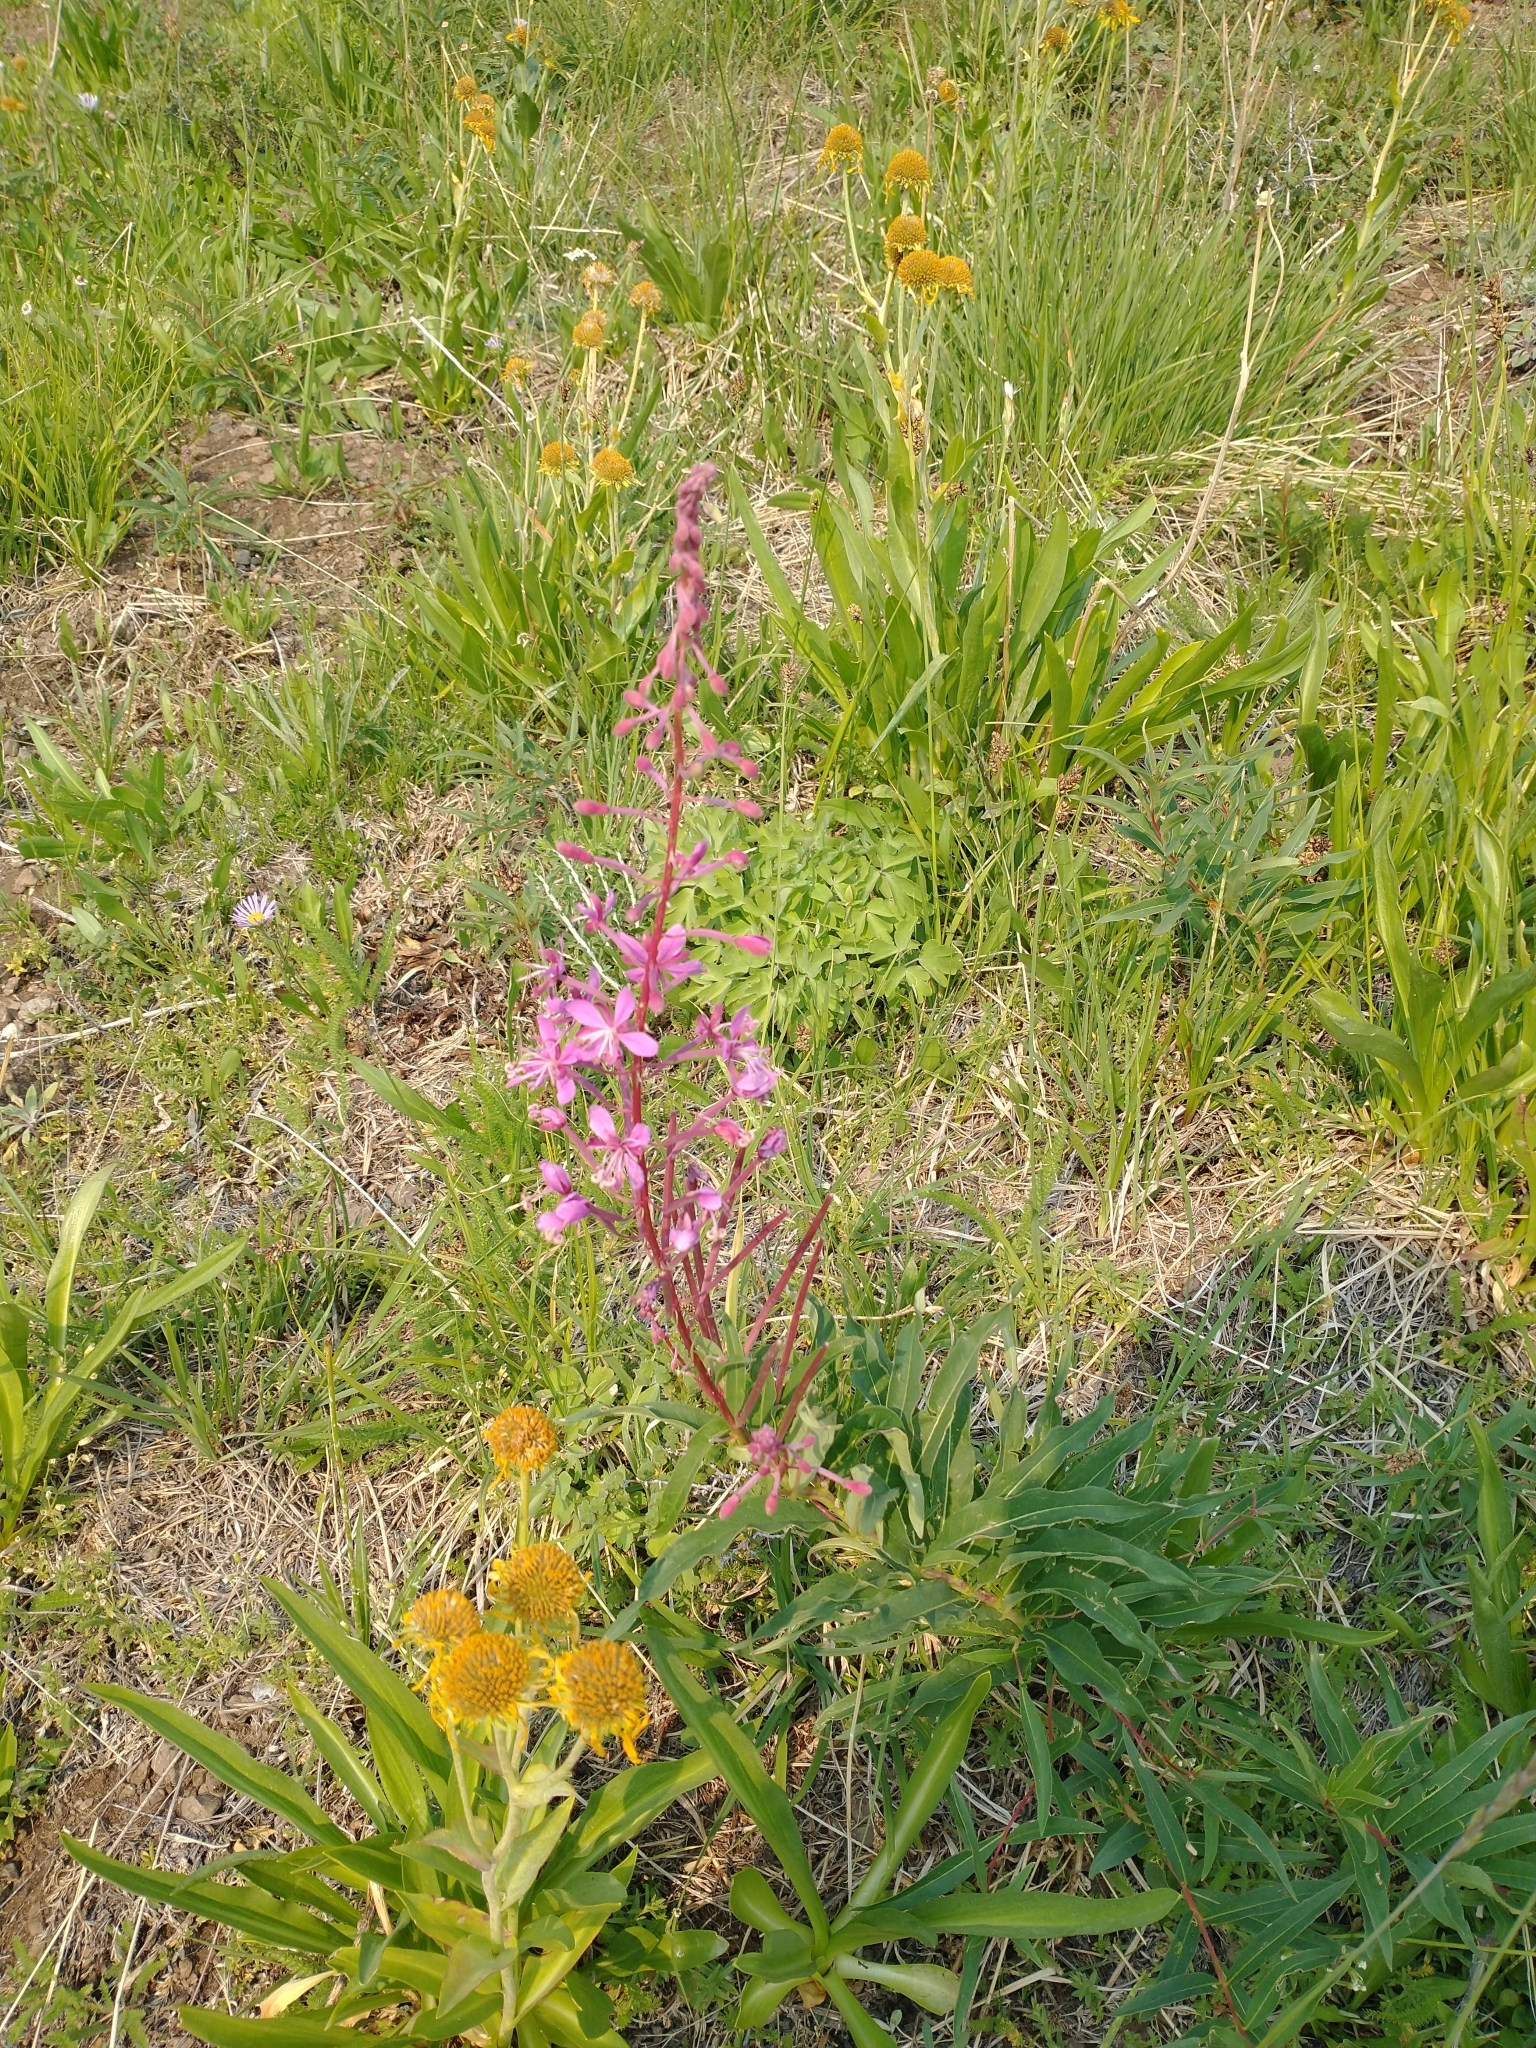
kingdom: Plantae
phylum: Tracheophyta
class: Magnoliopsida
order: Myrtales
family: Onagraceae
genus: Chamaenerion
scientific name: Chamaenerion angustifolium
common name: Fireweed
